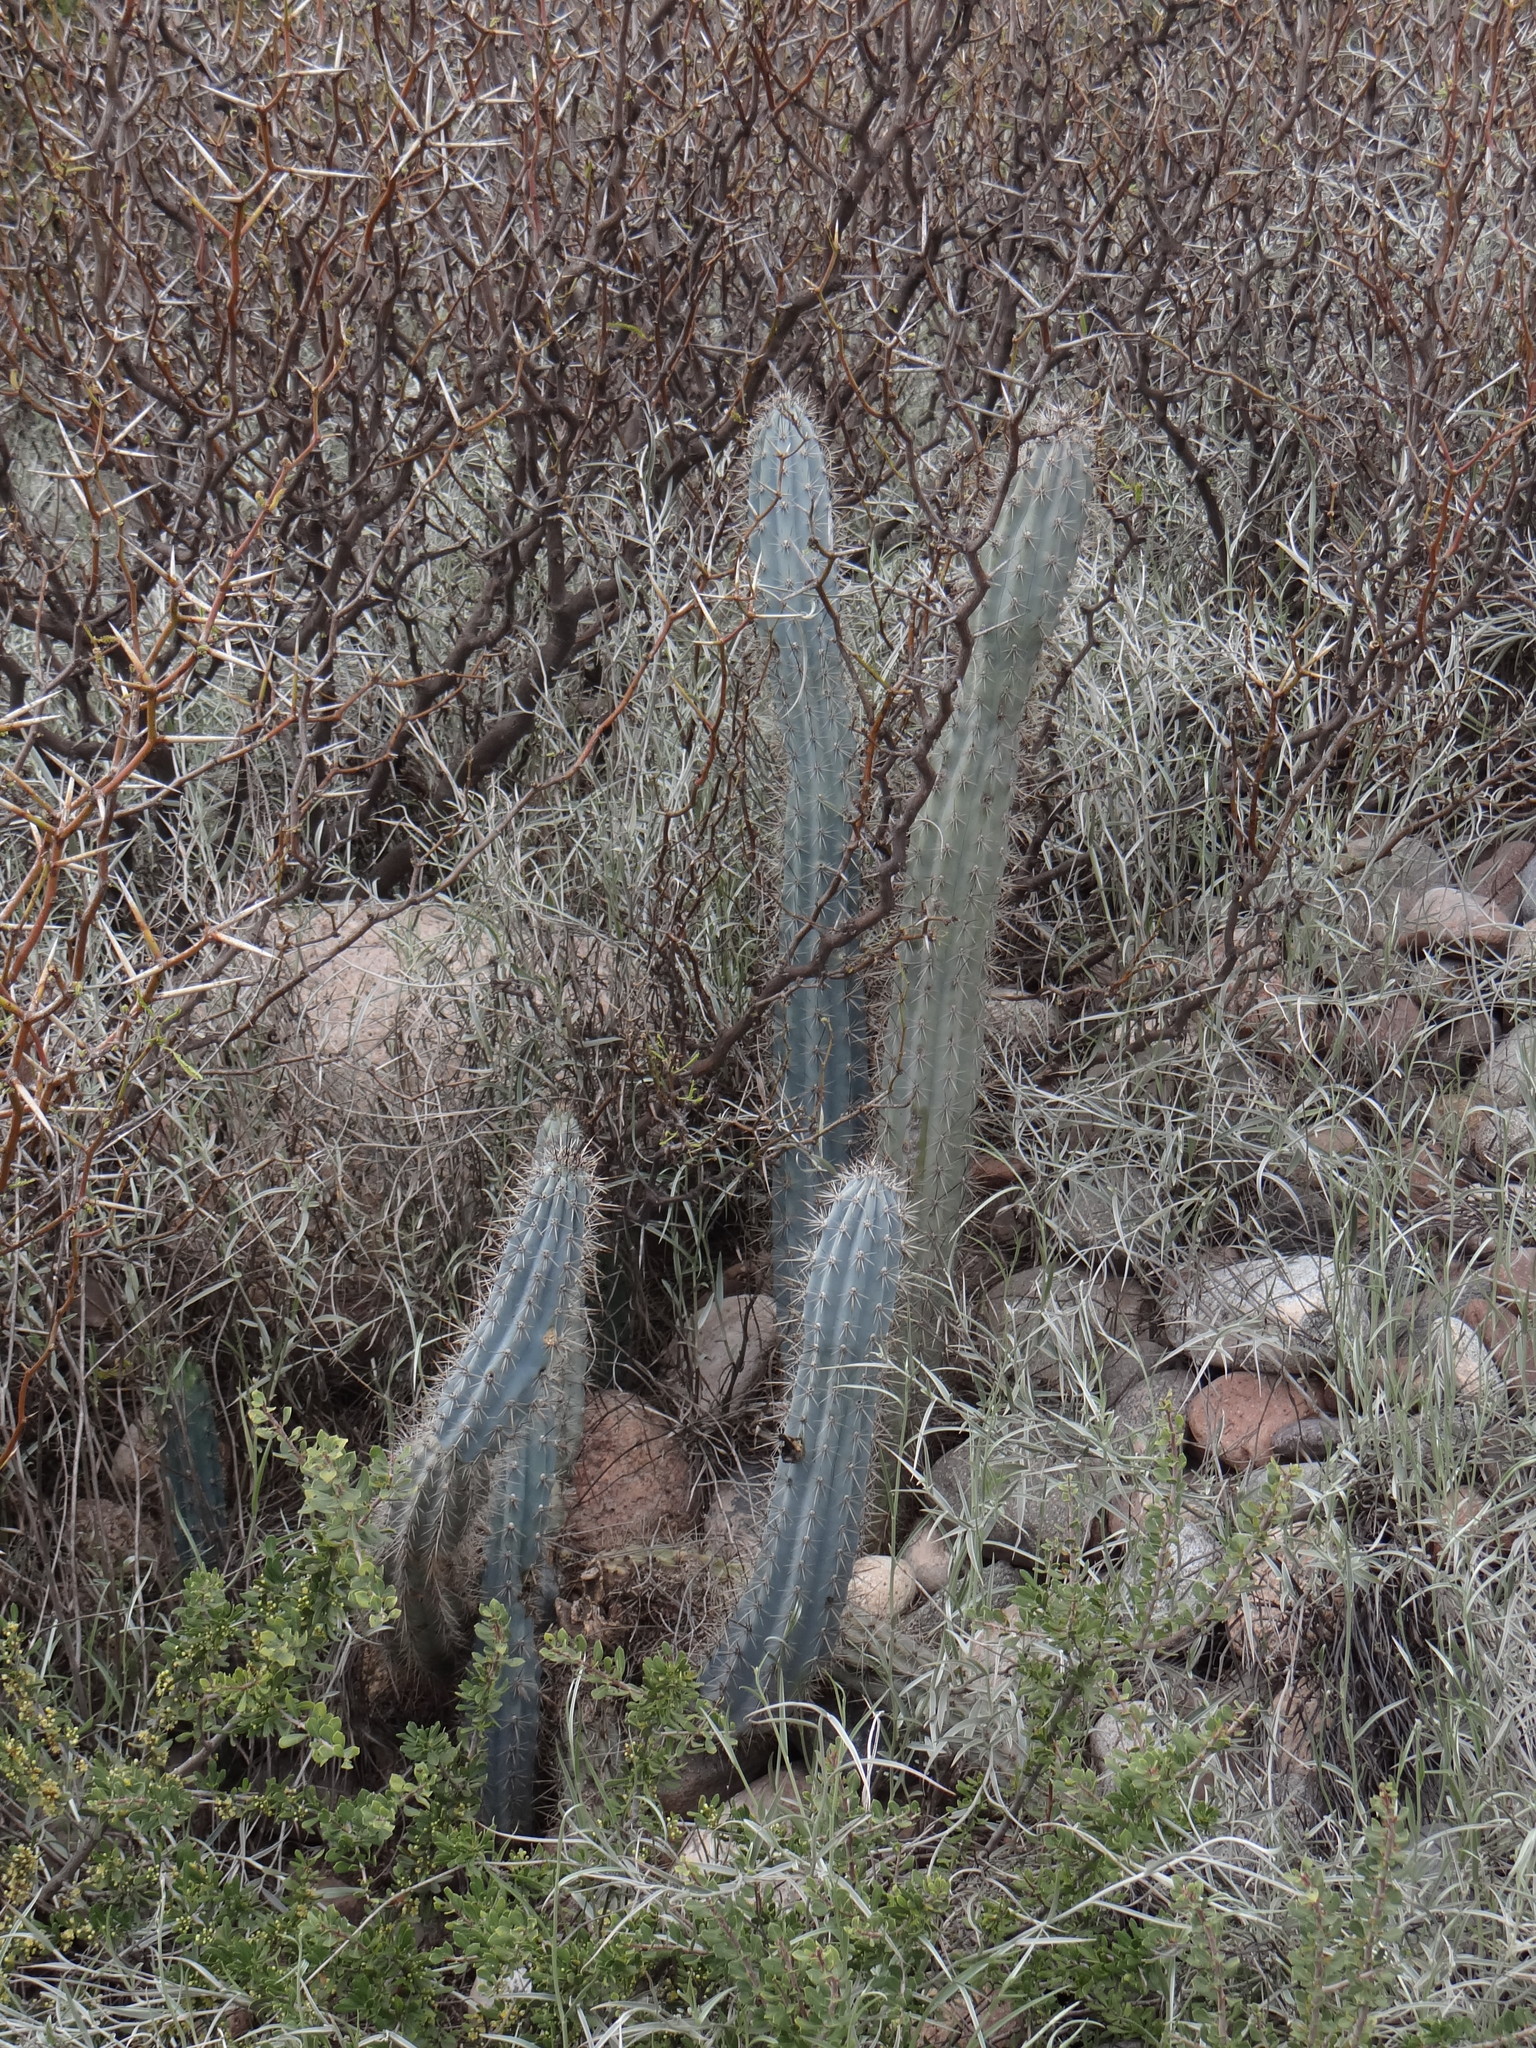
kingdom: Plantae
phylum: Tracheophyta
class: Magnoliopsida
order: Caryophyllales
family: Cactaceae
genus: Cereus
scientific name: Cereus aethiops
